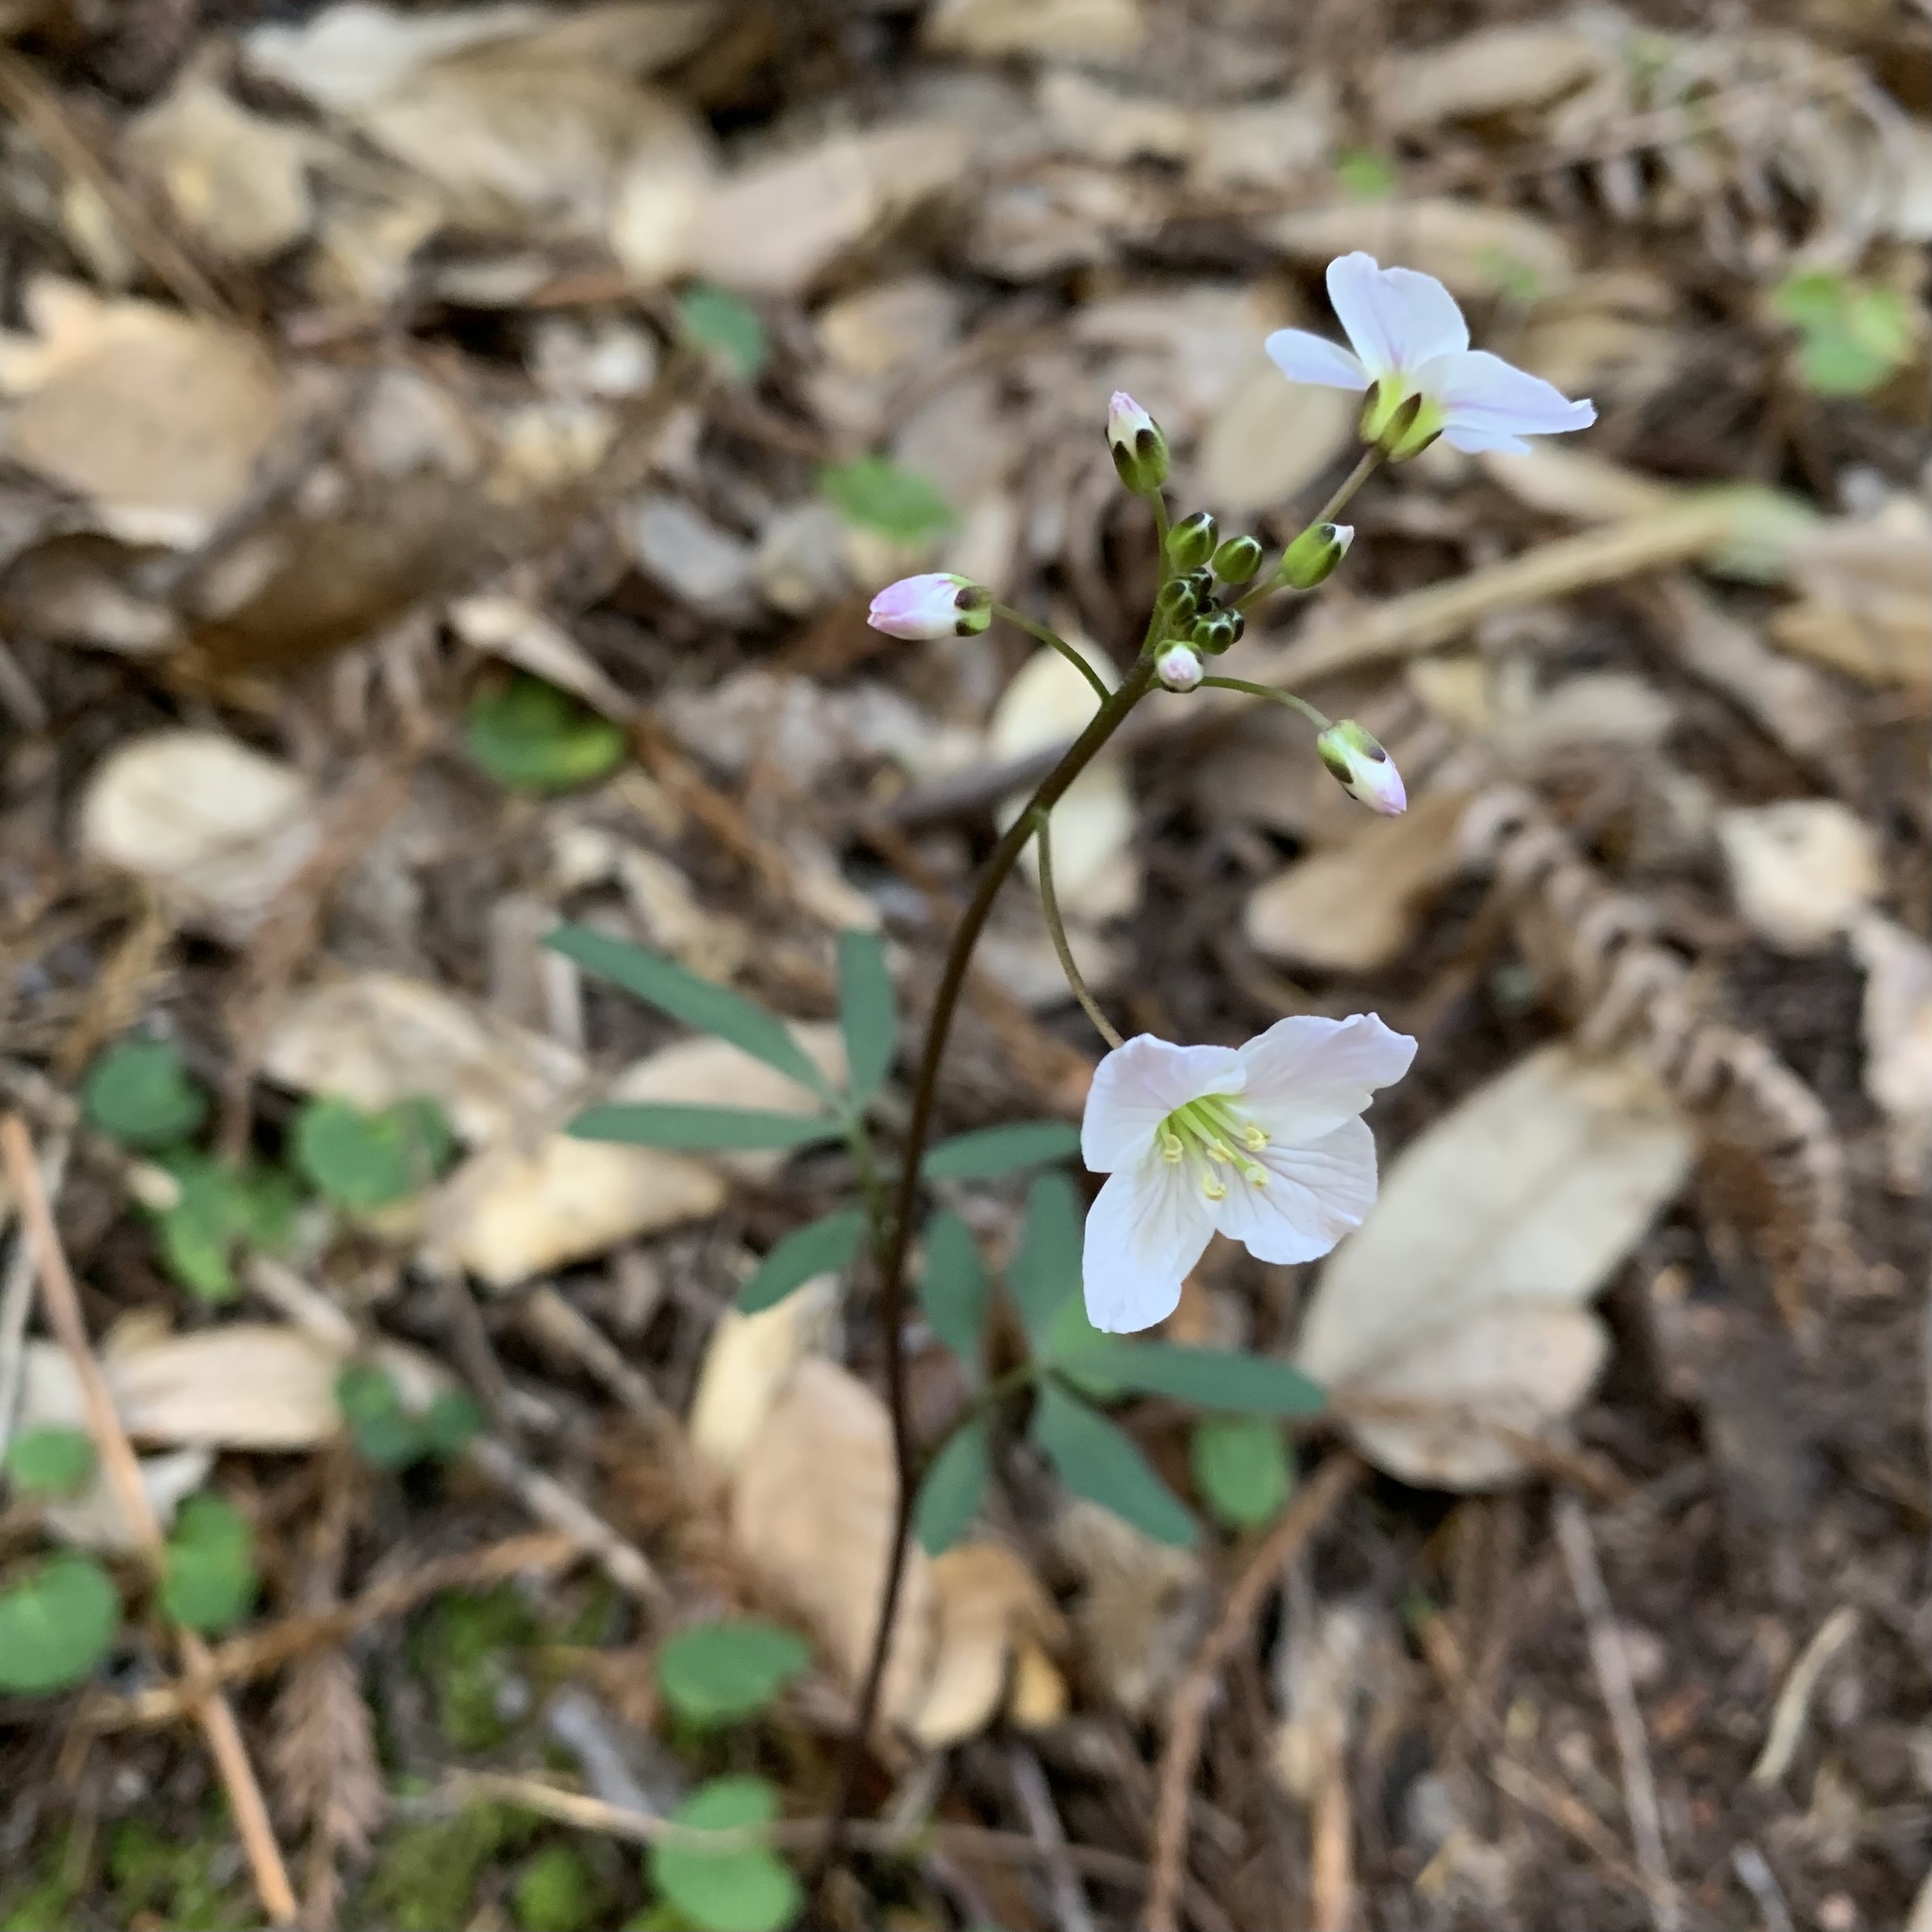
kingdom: Plantae
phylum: Tracheophyta
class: Magnoliopsida
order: Brassicales
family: Brassicaceae
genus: Cardamine
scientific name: Cardamine californica
